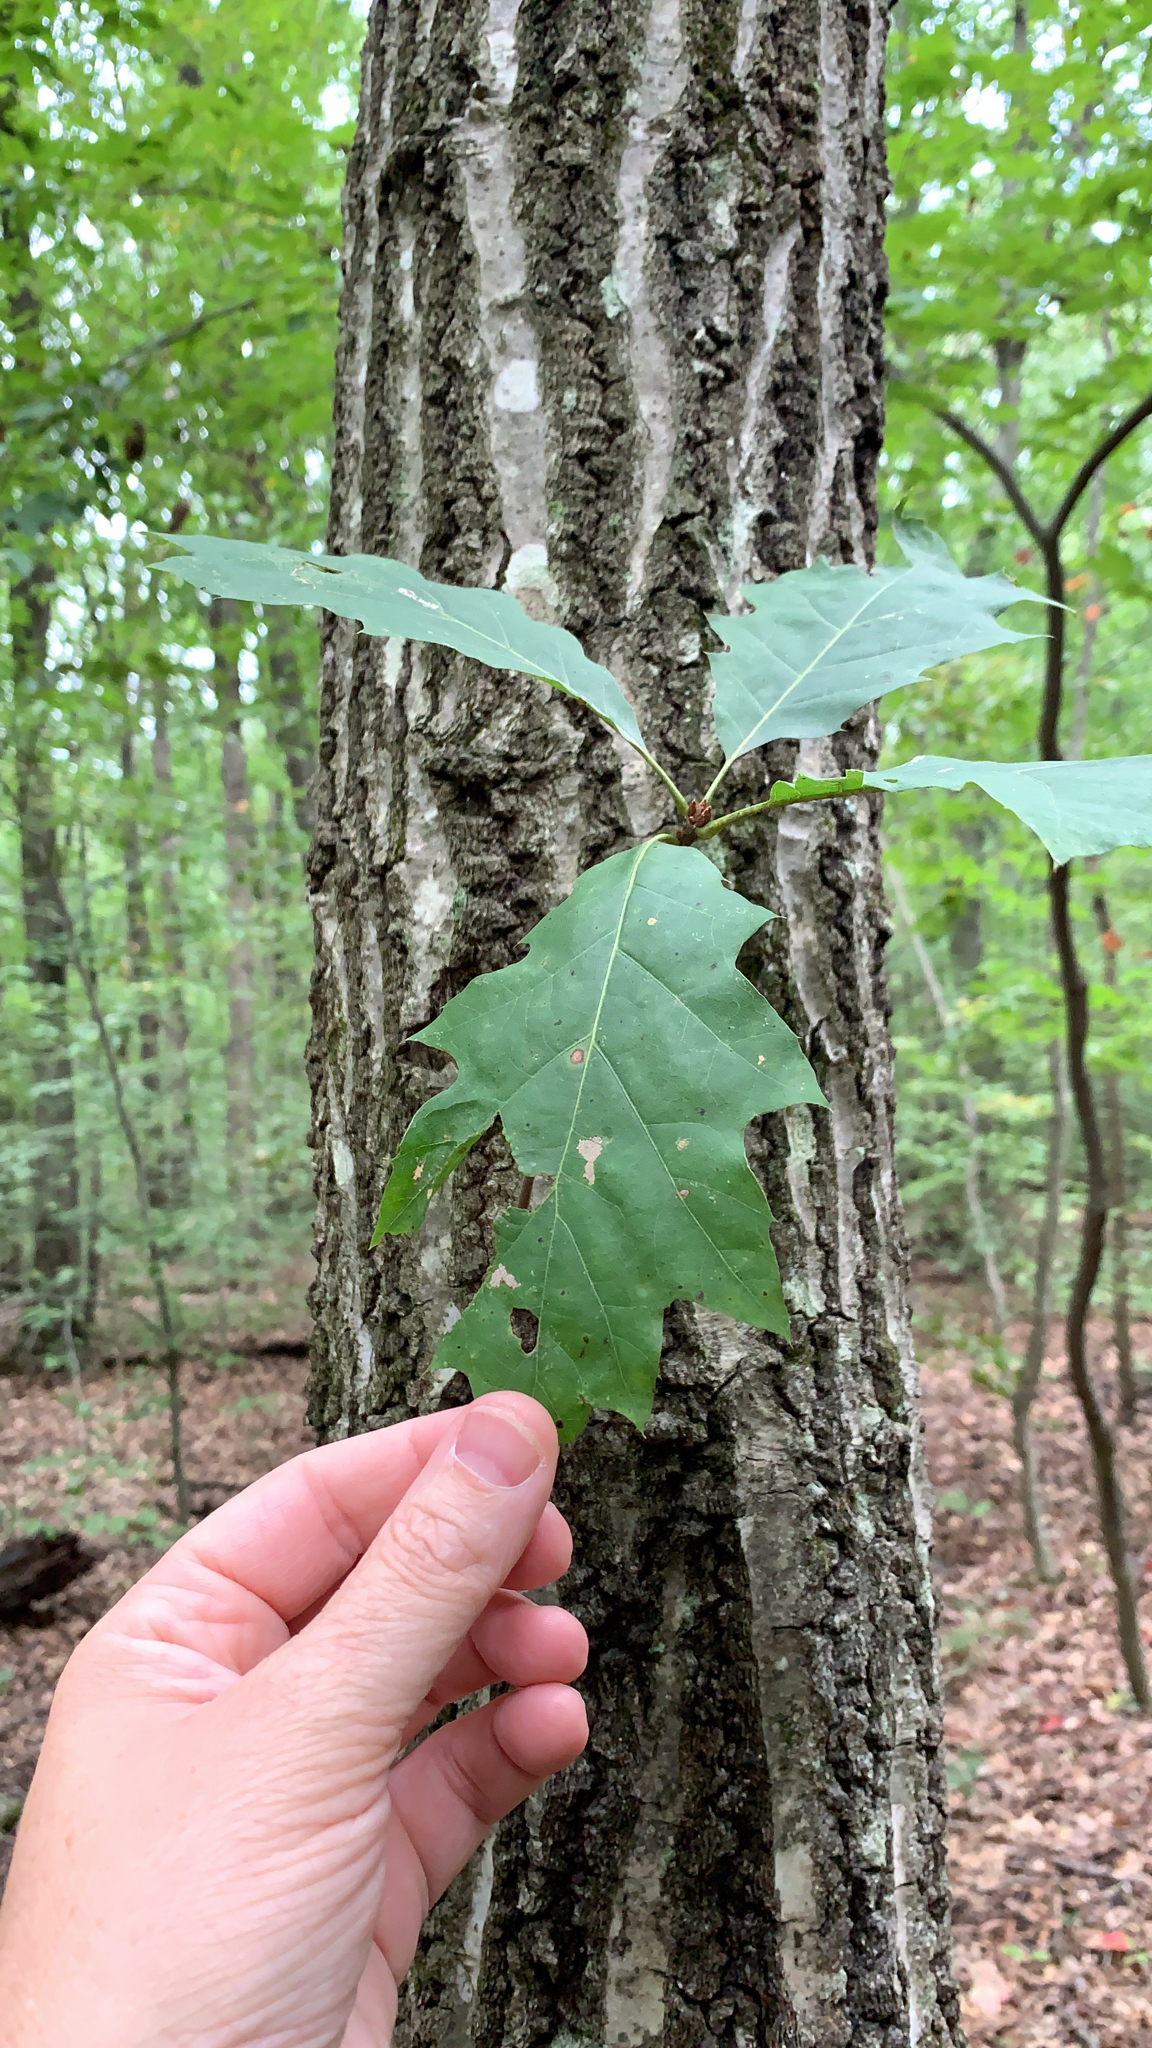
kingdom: Plantae
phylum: Tracheophyta
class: Magnoliopsida
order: Fagales
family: Fagaceae
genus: Quercus
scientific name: Quercus rubra
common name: Red oak
